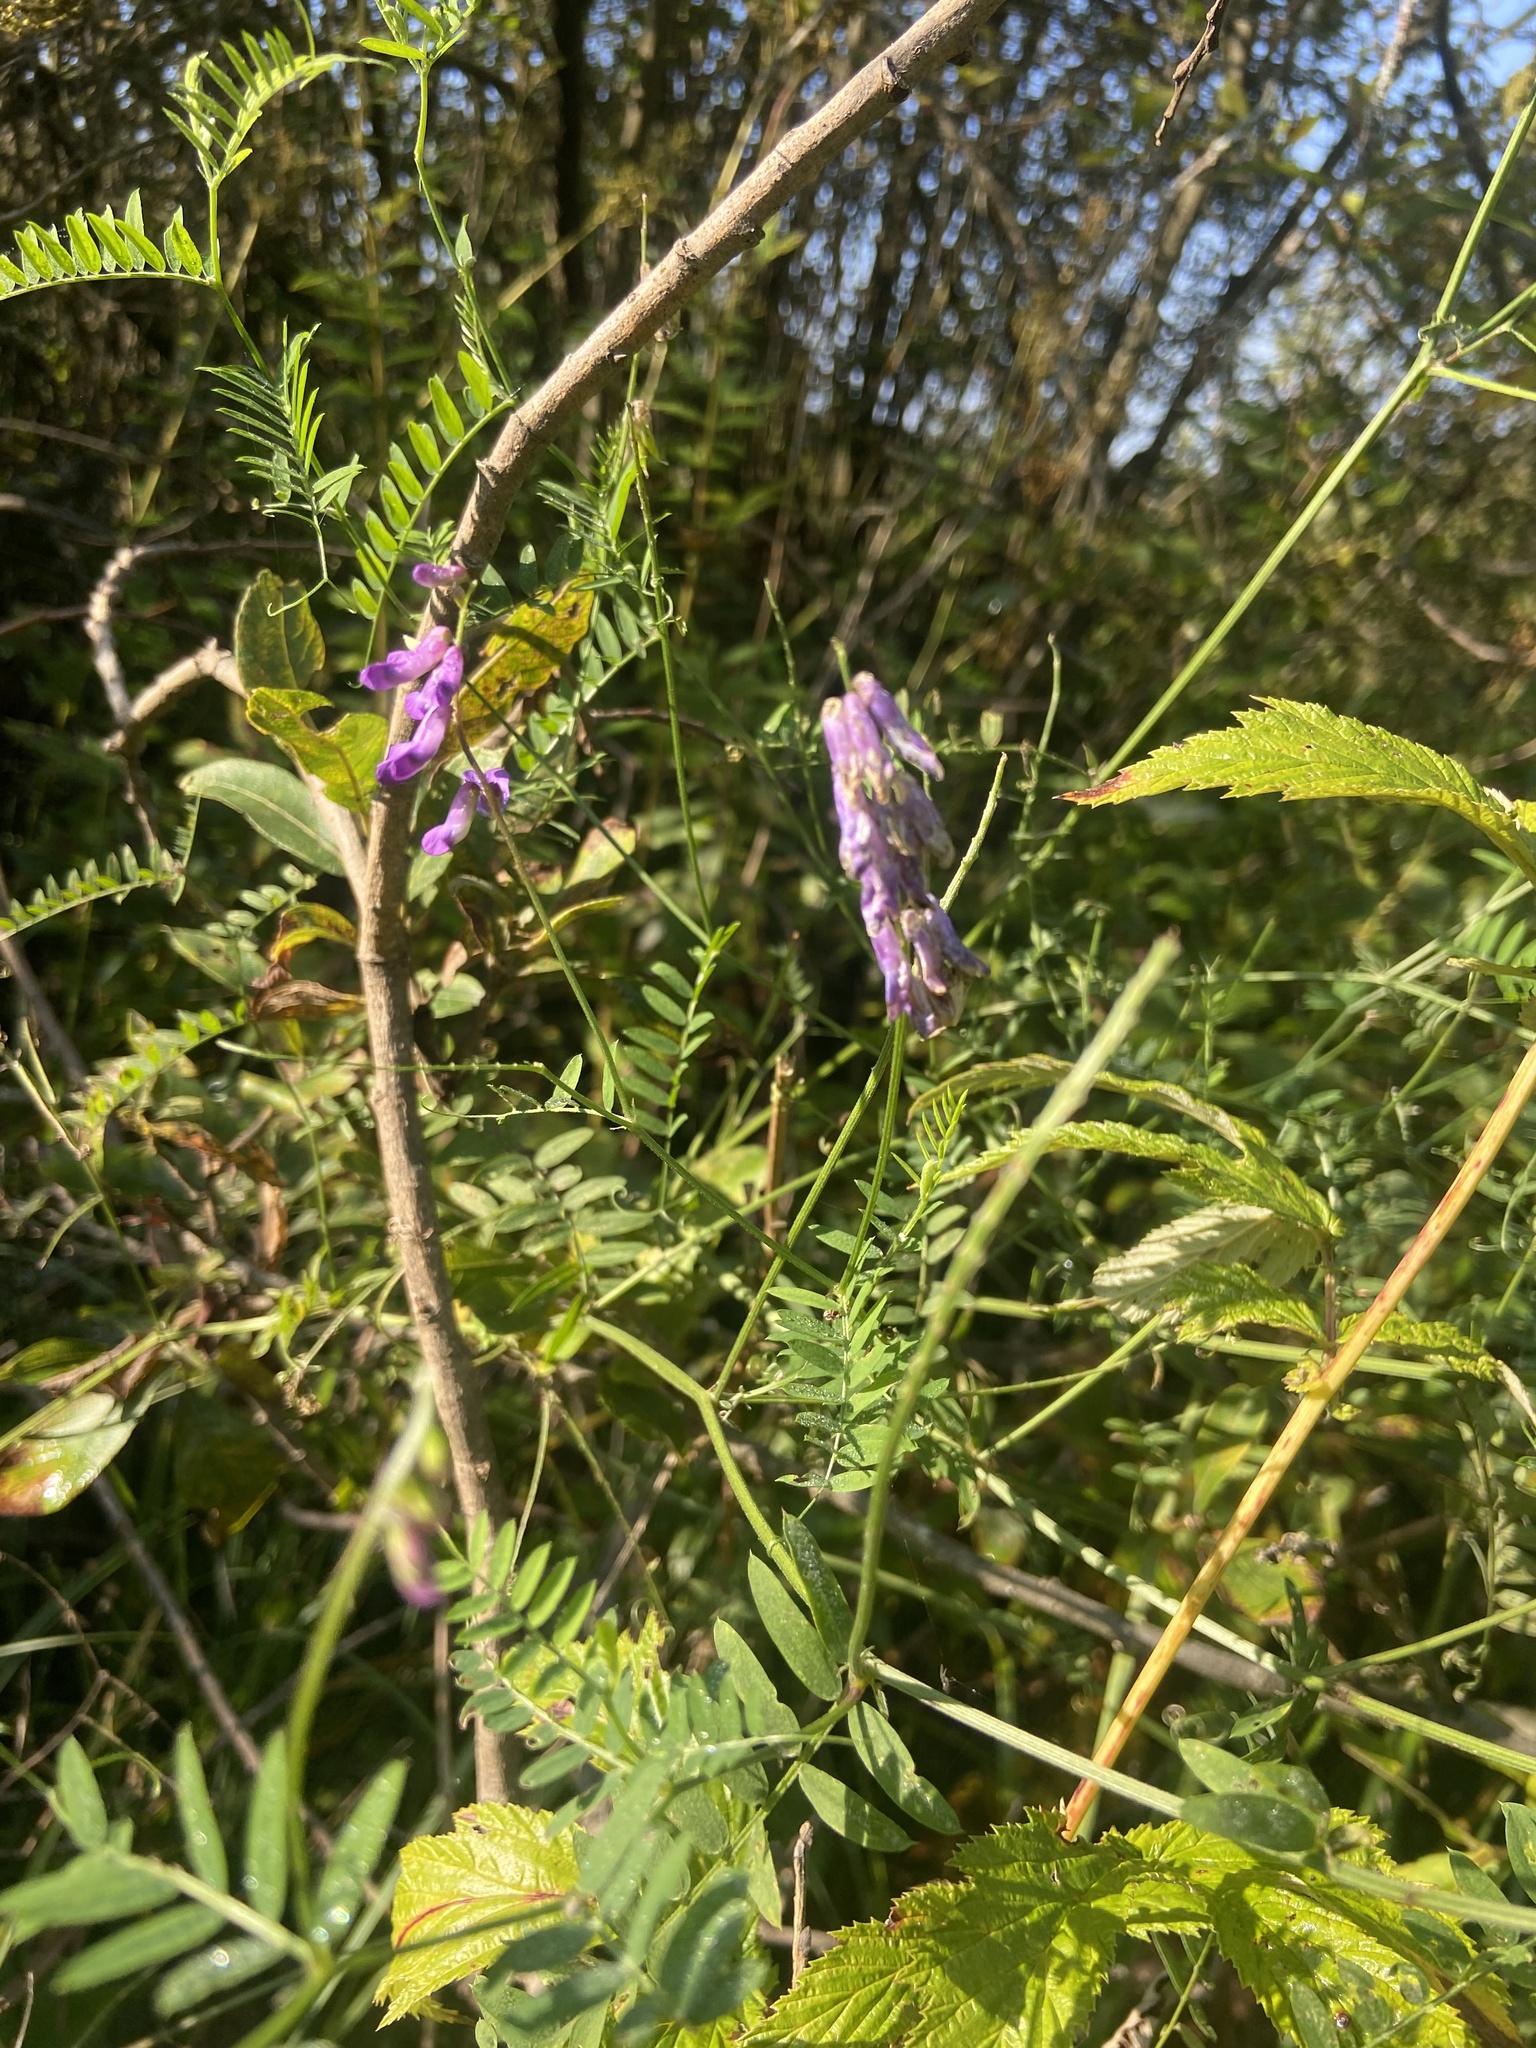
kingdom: Plantae
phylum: Tracheophyta
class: Magnoliopsida
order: Fabales
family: Fabaceae
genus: Vicia
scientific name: Vicia cracca
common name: Bird vetch
